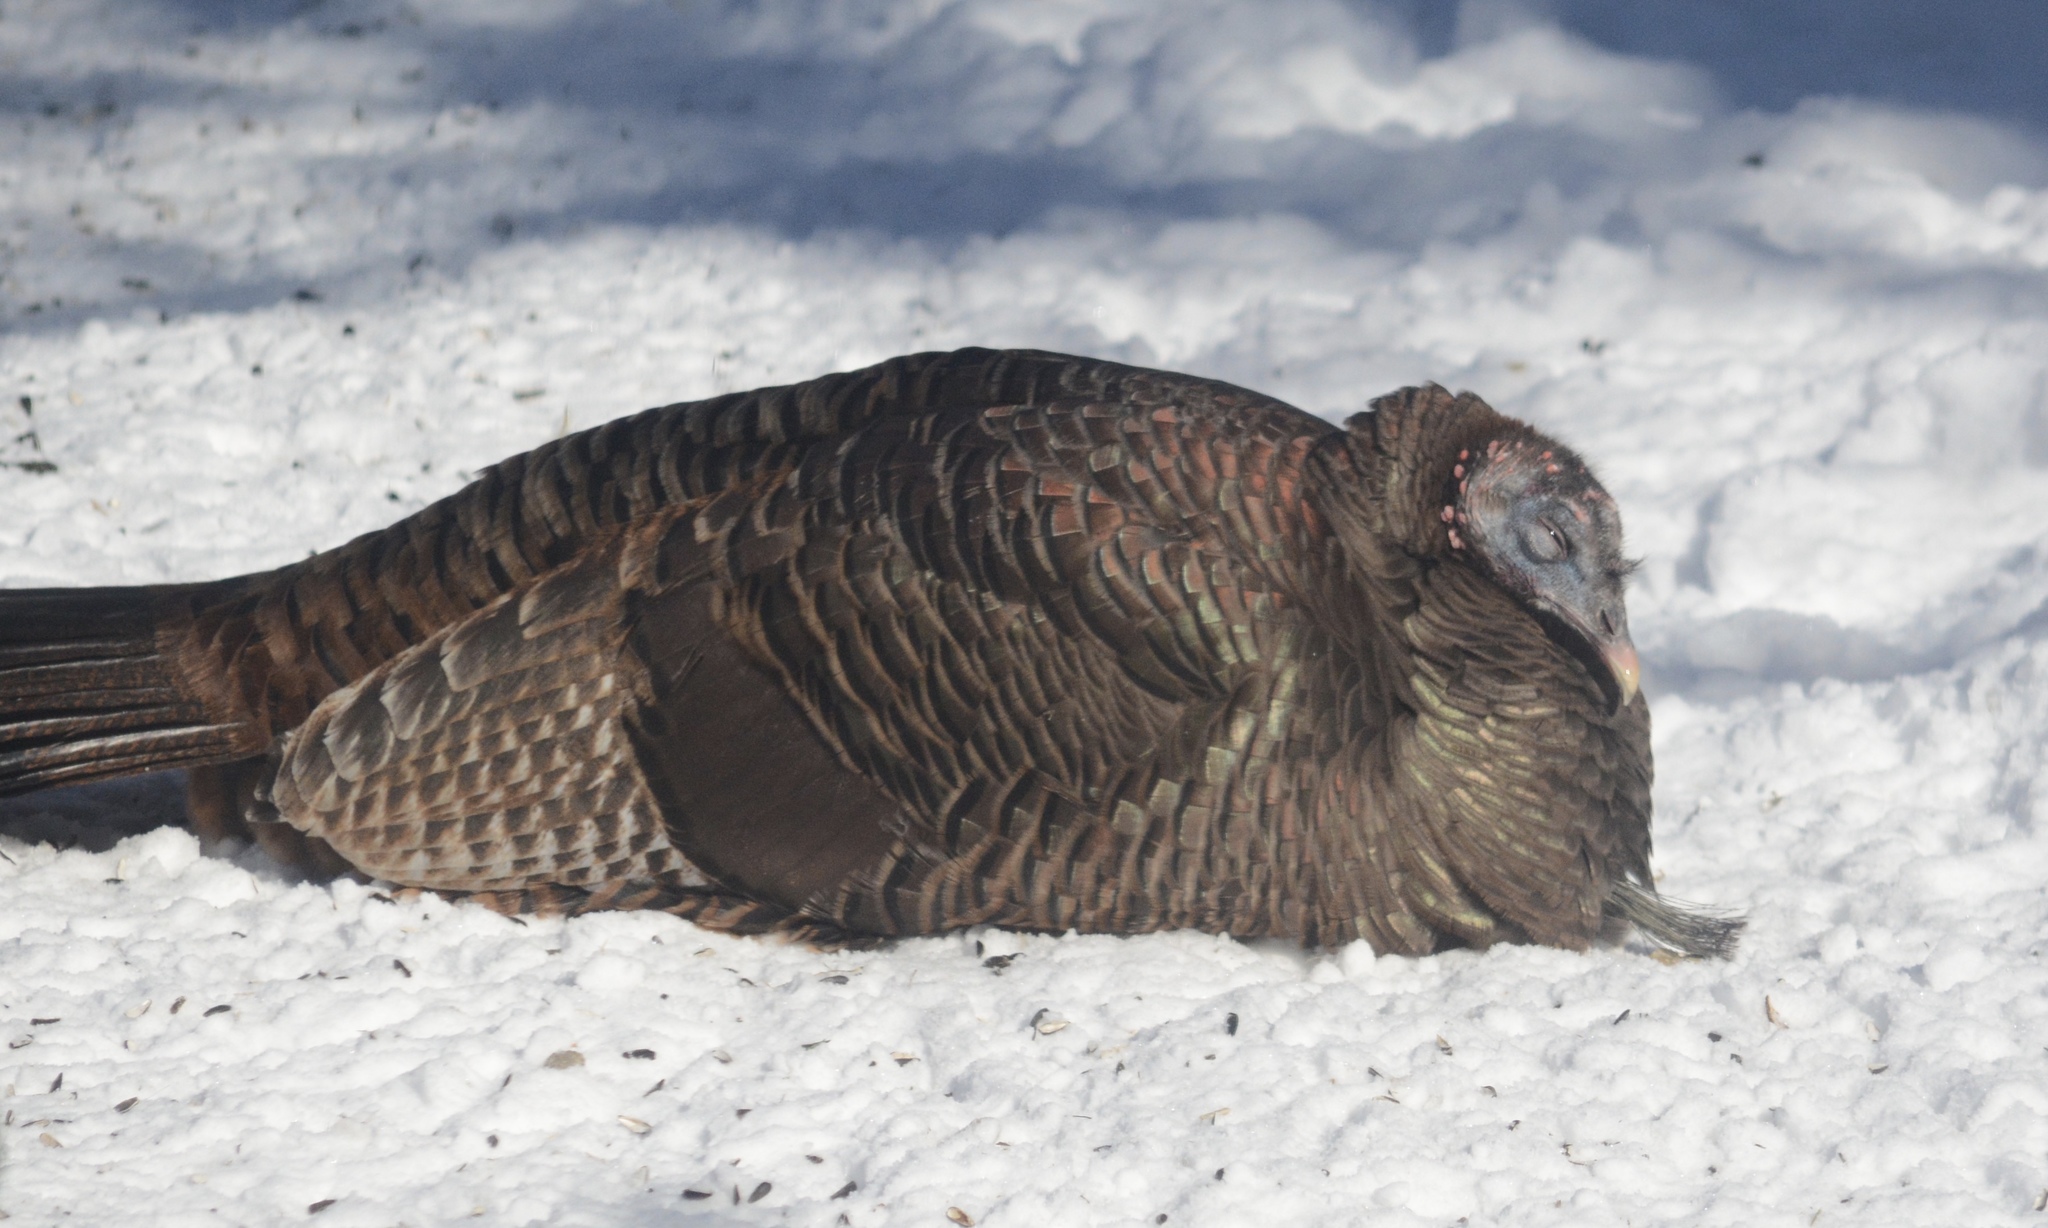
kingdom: Animalia
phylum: Chordata
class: Aves
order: Galliformes
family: Phasianidae
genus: Meleagris
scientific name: Meleagris gallopavo
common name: Wild turkey
